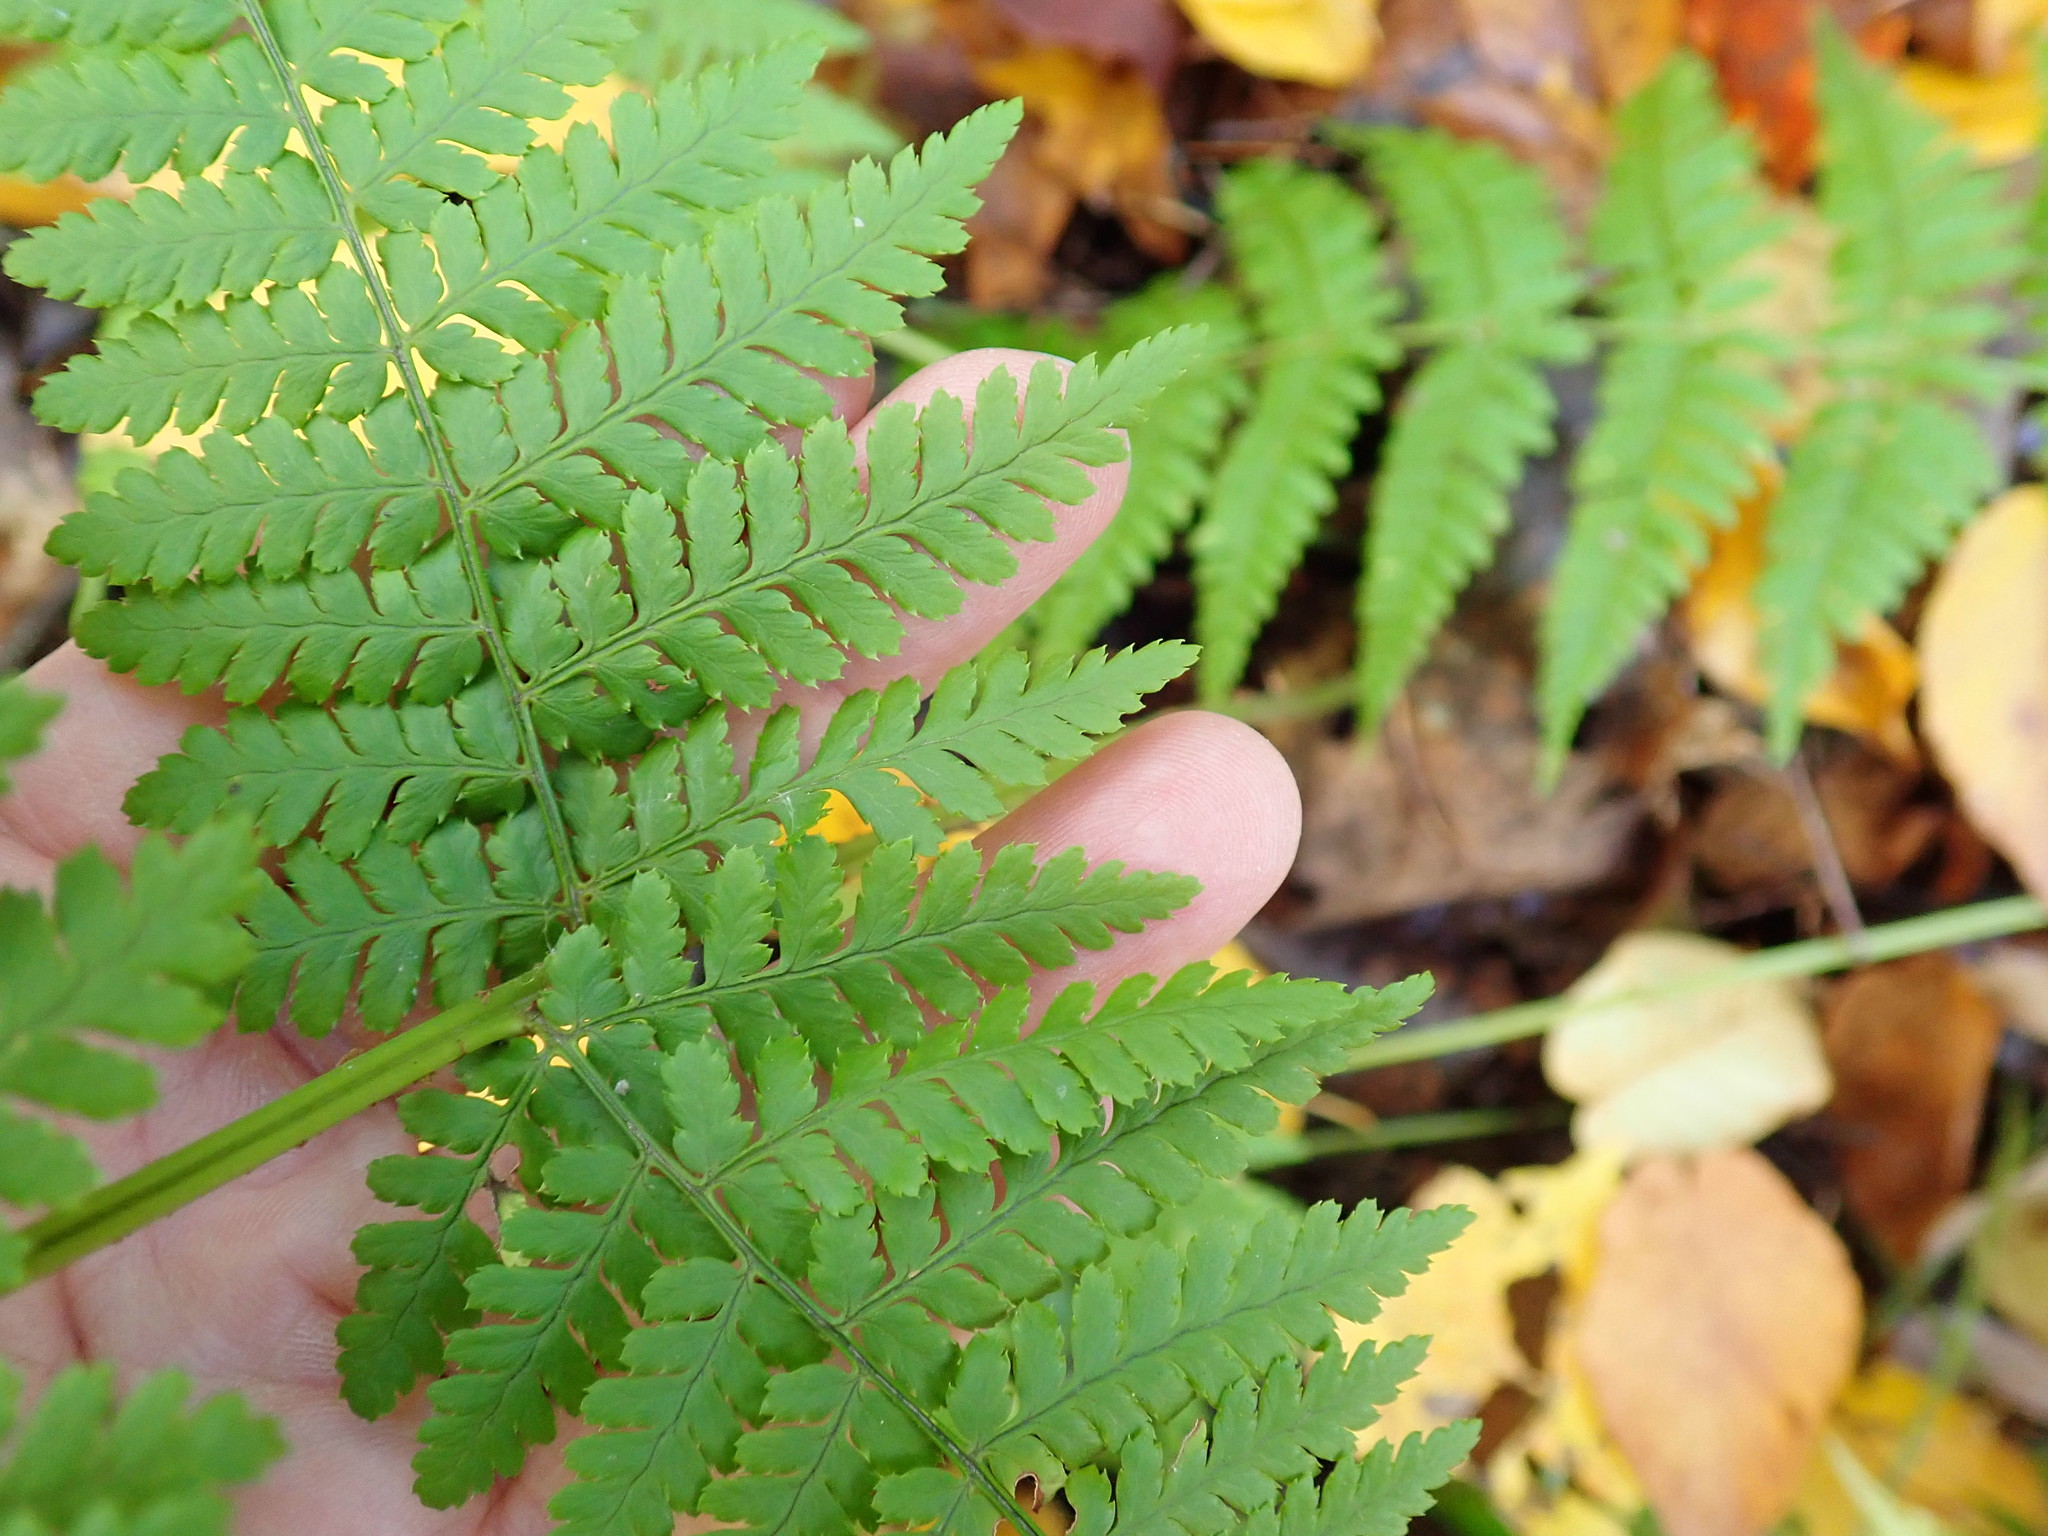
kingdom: Plantae
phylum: Tracheophyta
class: Polypodiopsida
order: Polypodiales
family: Dryopteridaceae
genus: Dryopteris
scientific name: Dryopteris intermedia
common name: Evergreen wood fern
